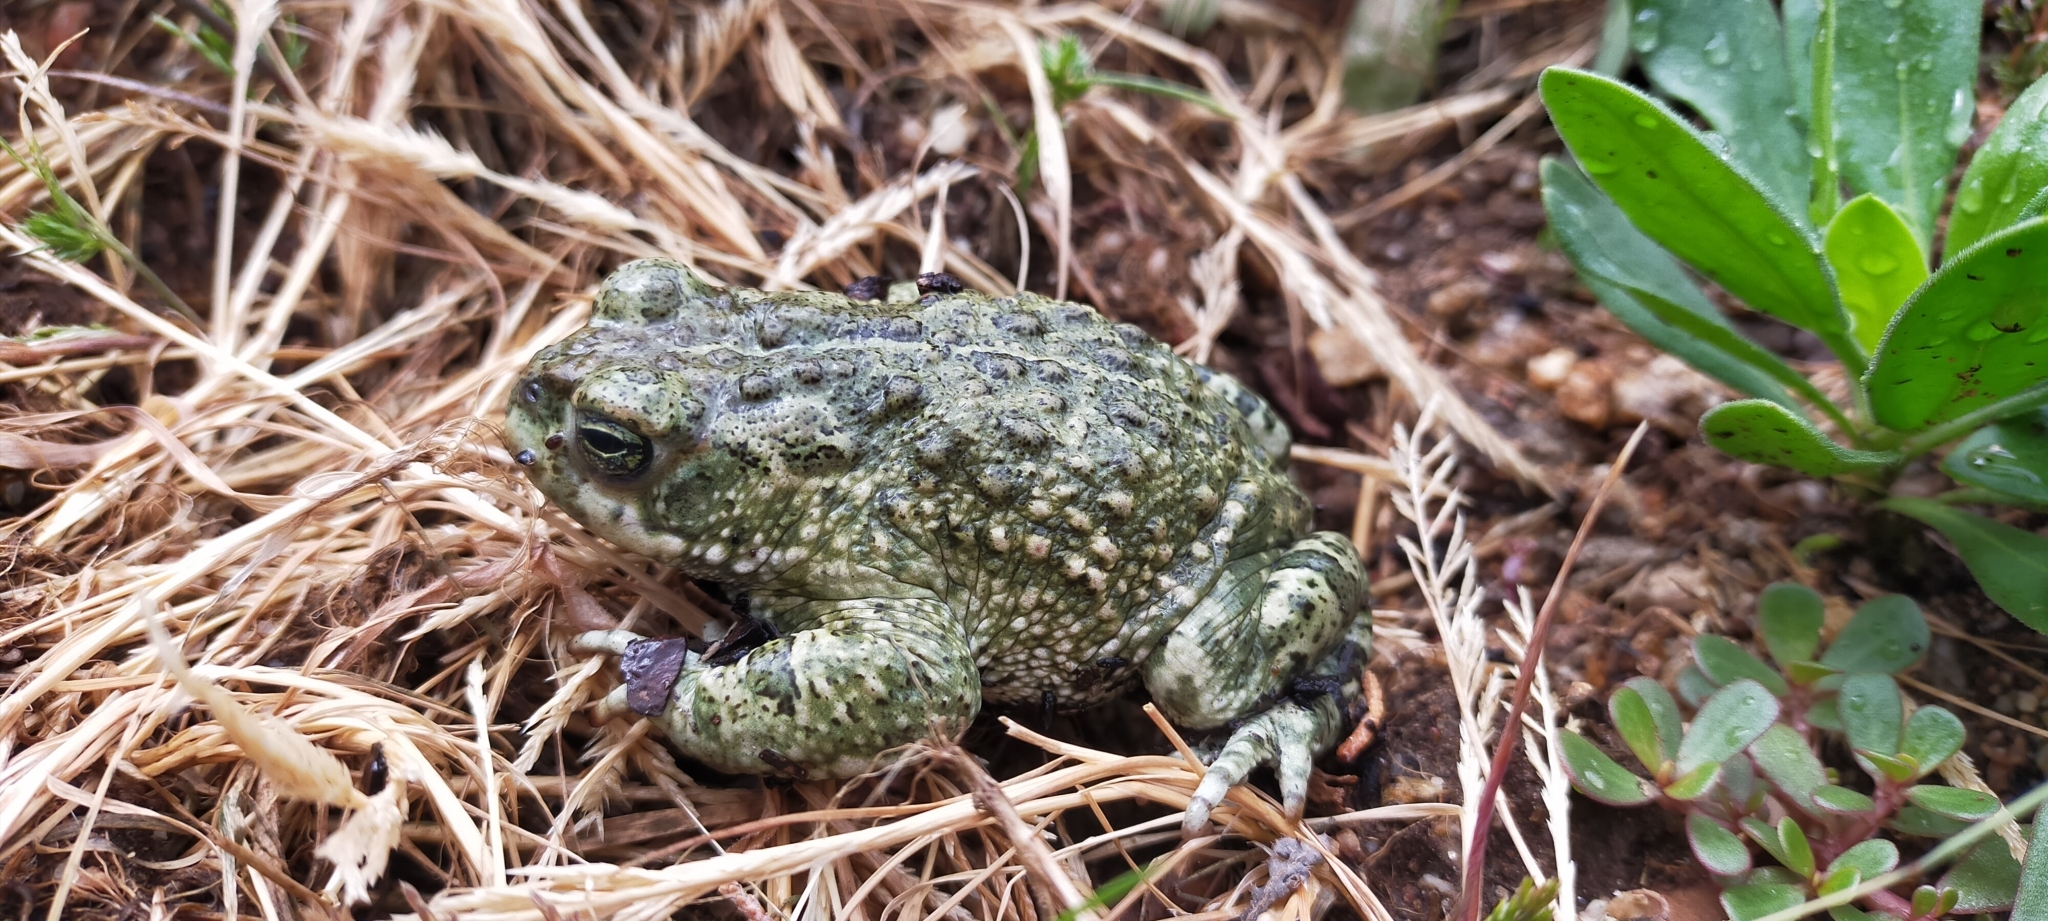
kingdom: Animalia
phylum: Chordata
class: Amphibia
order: Anura
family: Bufonidae
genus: Epidalea
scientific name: Epidalea calamita
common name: Natterjack toad
